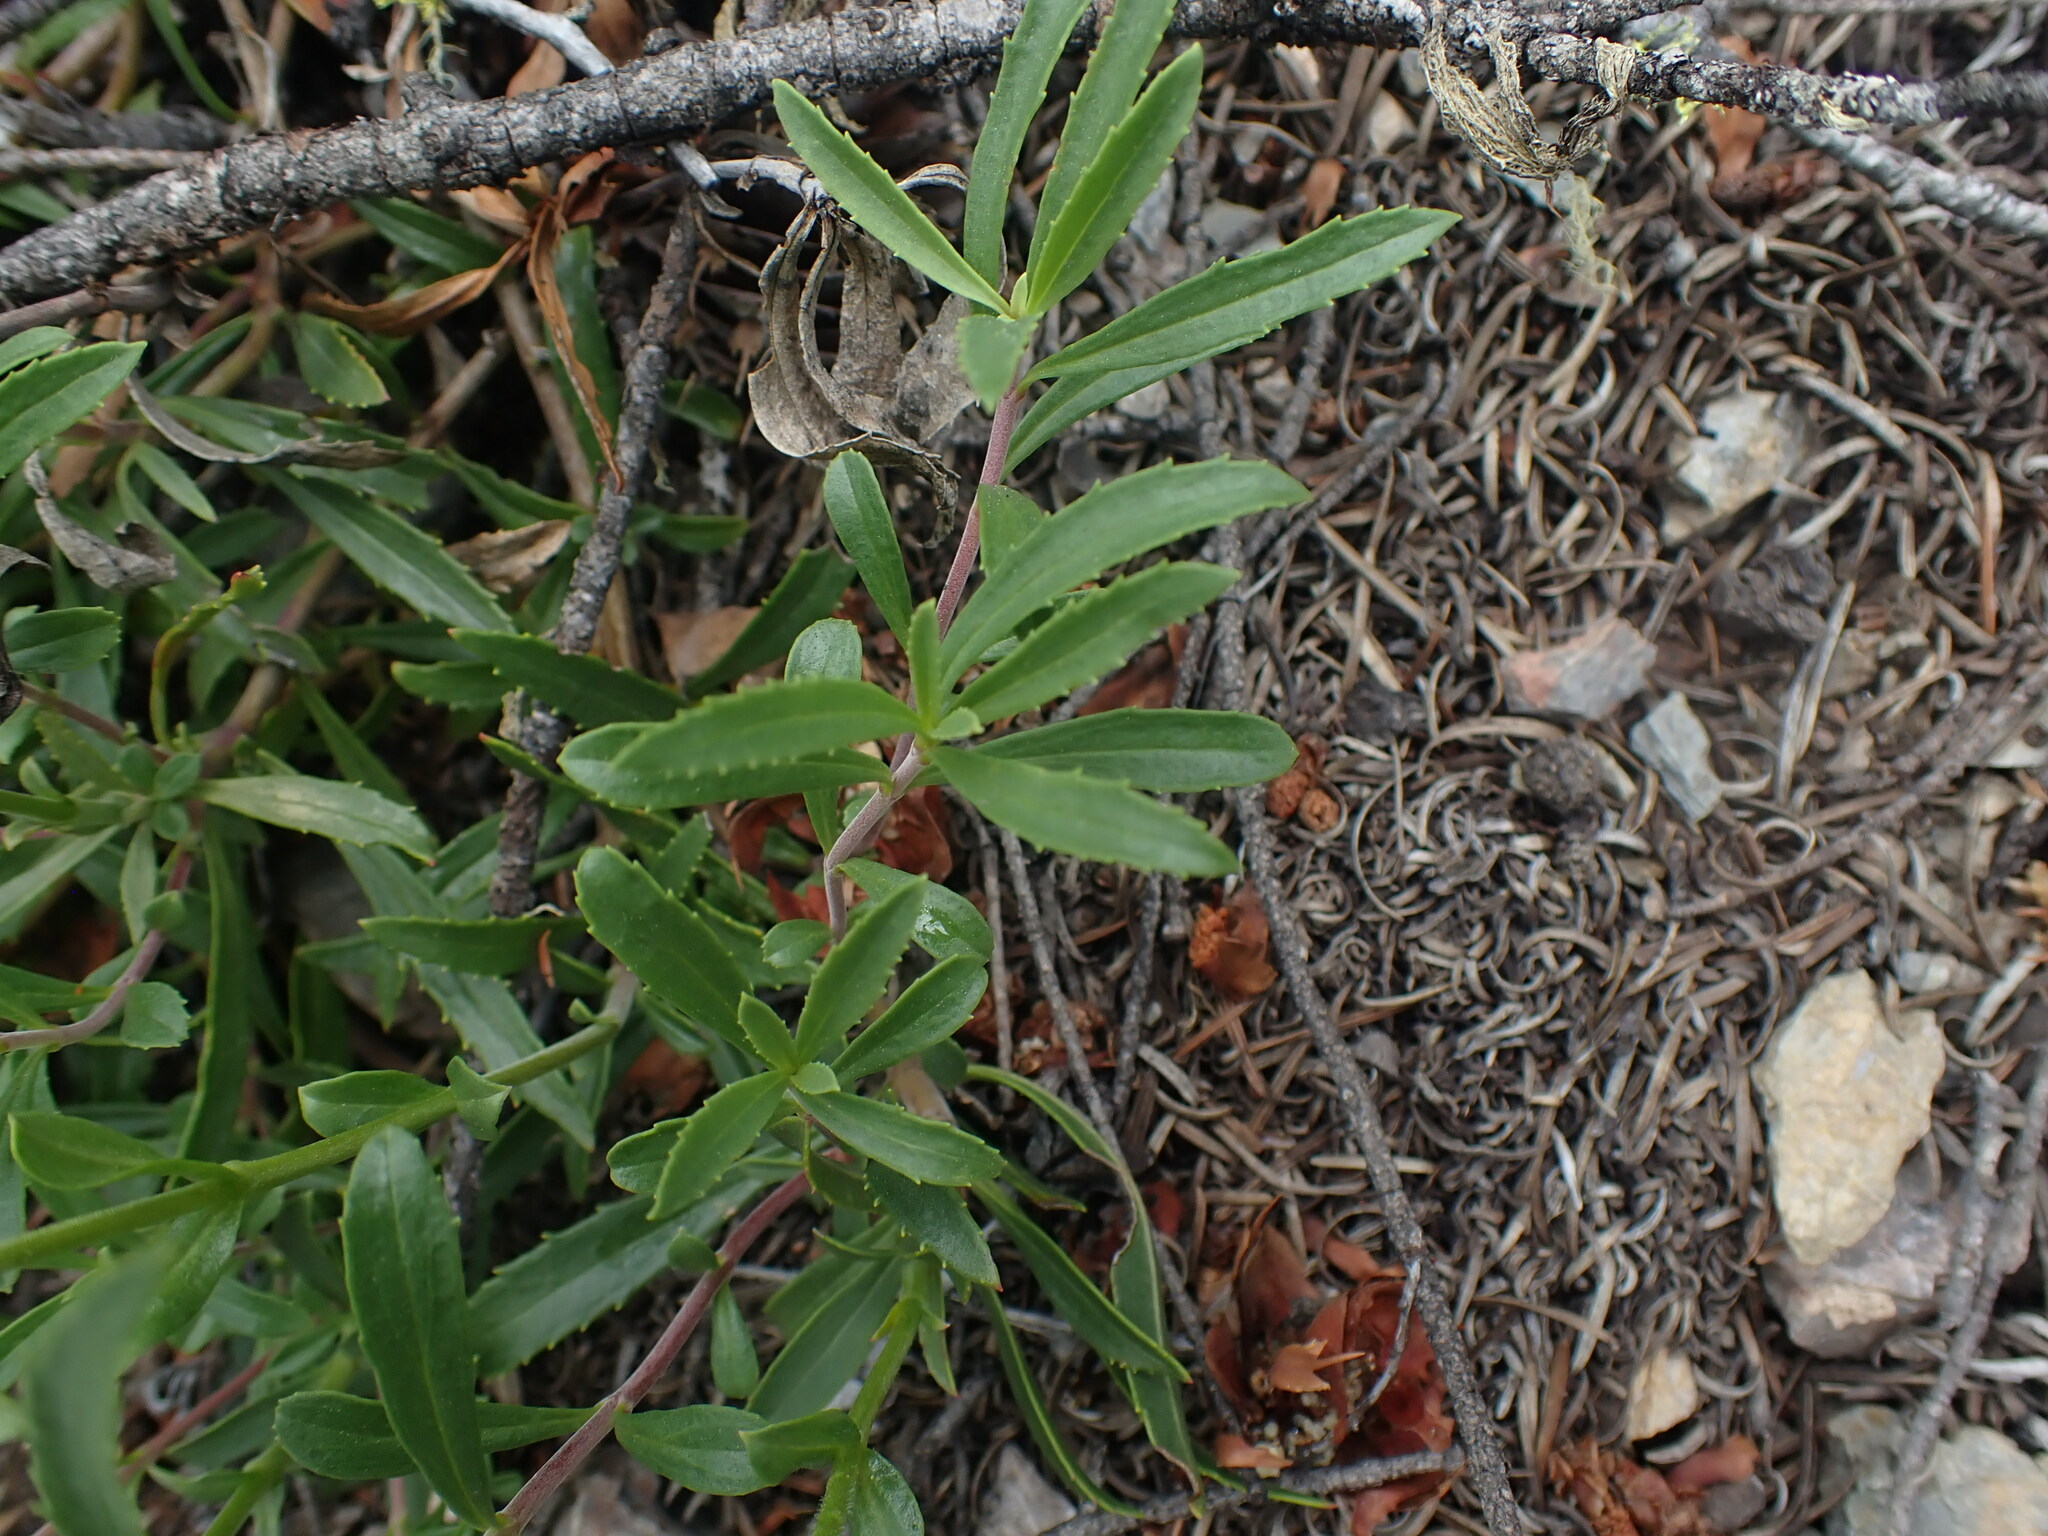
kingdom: Plantae
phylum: Tracheophyta
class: Magnoliopsida
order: Lamiales
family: Plantaginaceae
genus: Penstemon
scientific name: Penstemon fruticosus
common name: Bush penstemon
